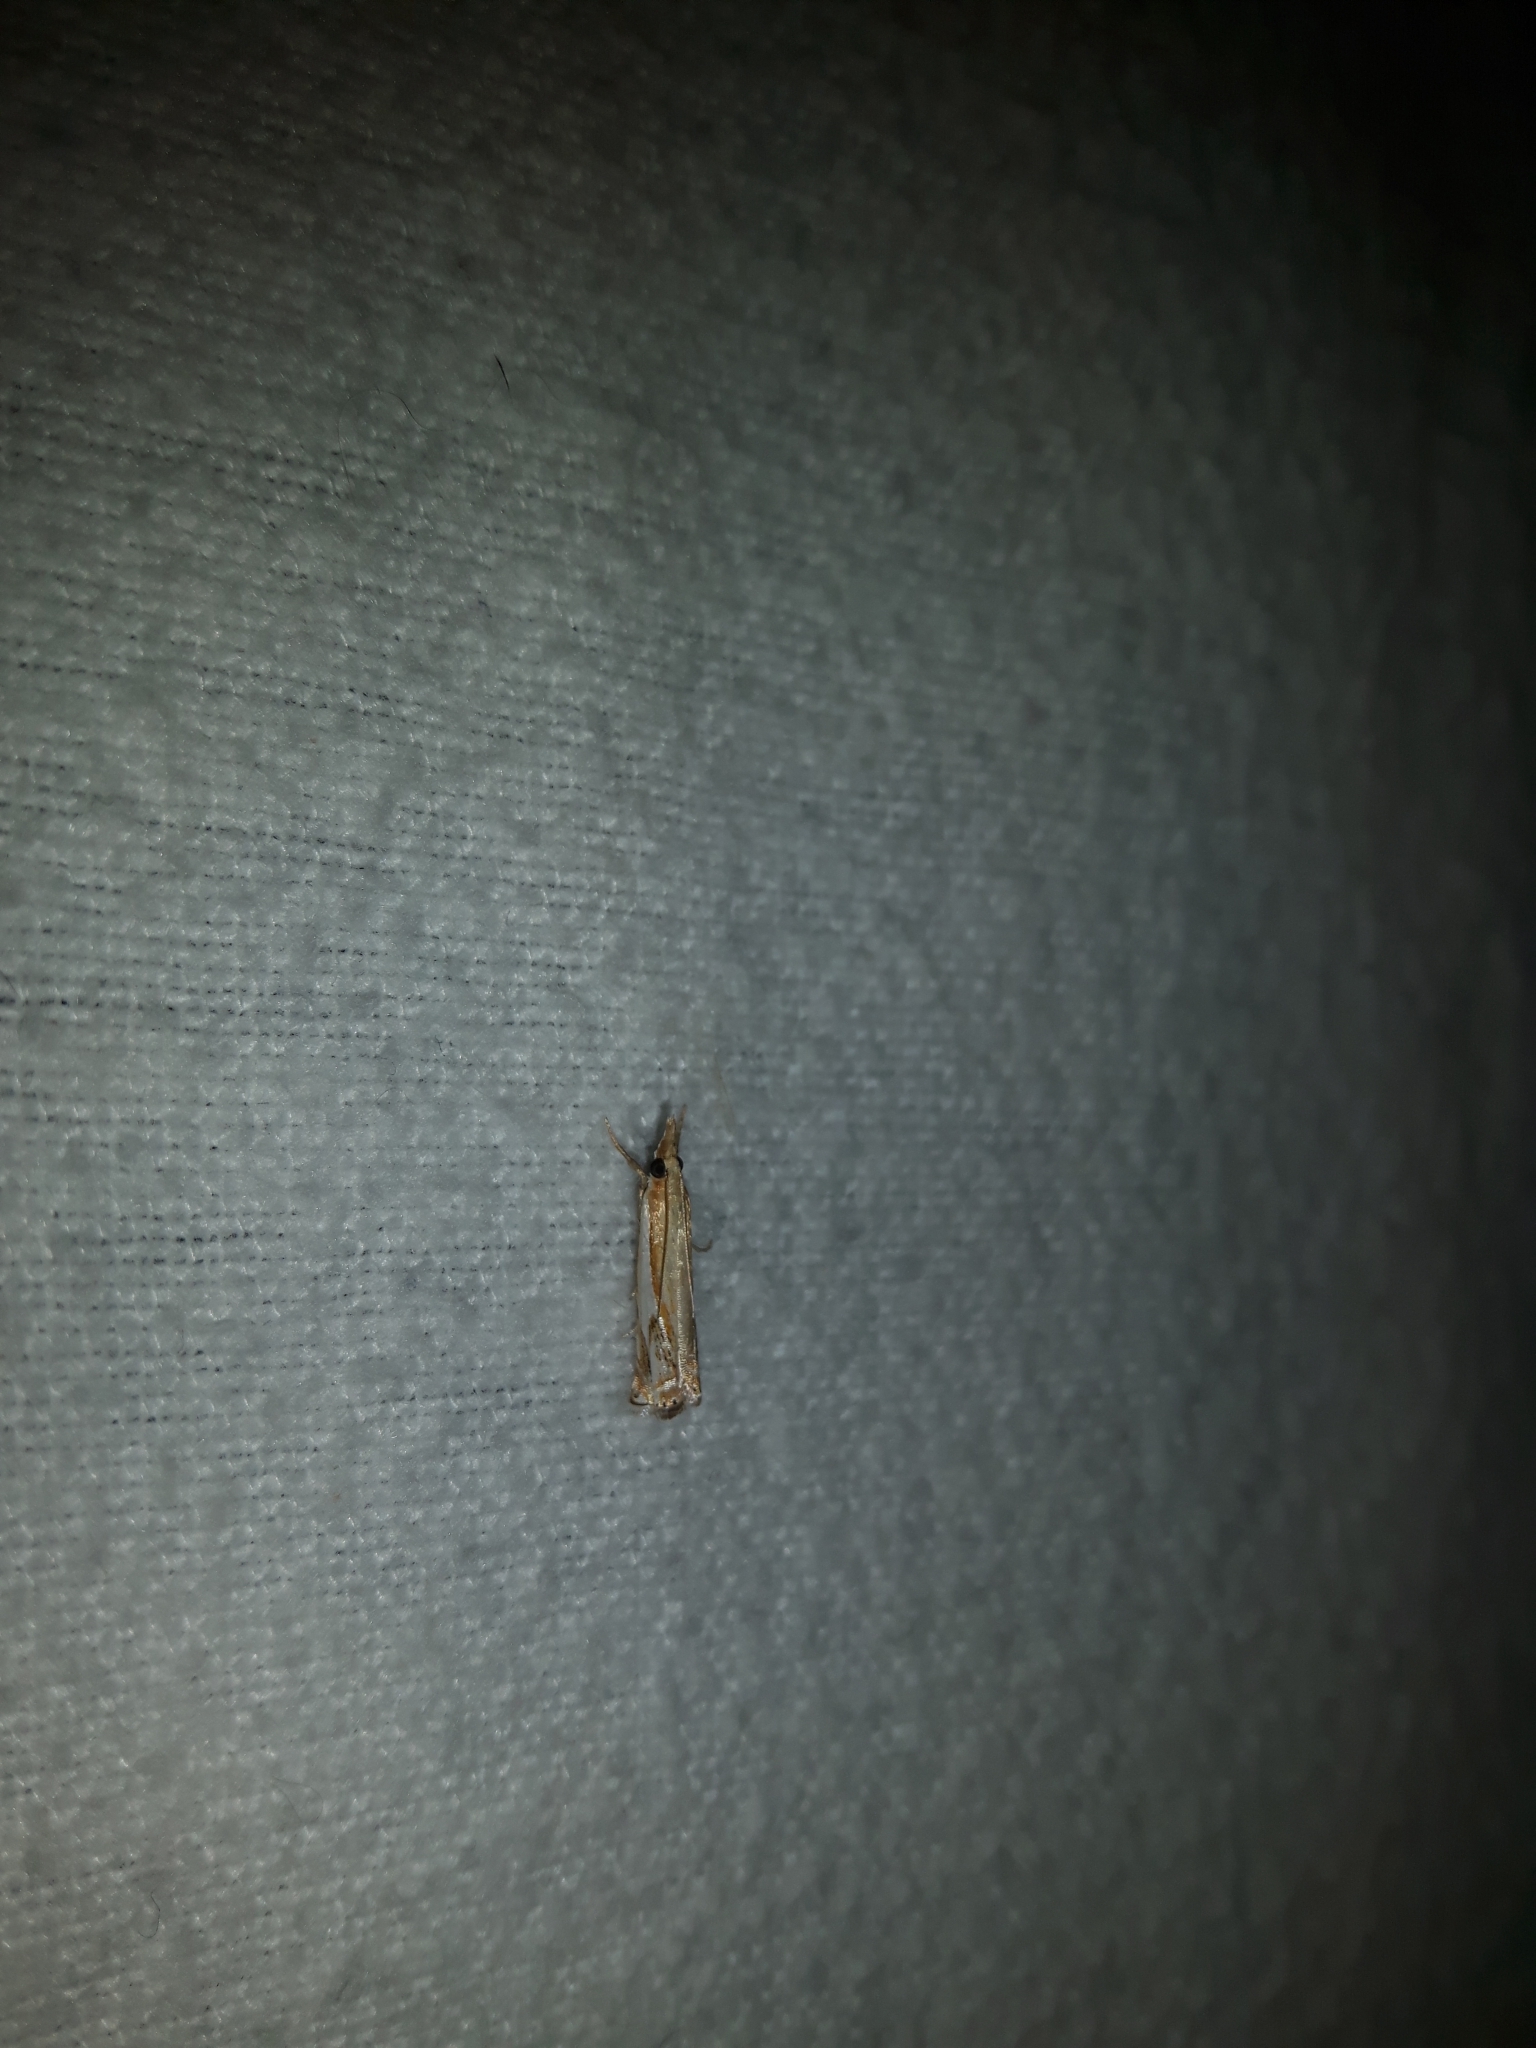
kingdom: Animalia
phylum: Arthropoda
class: Insecta
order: Lepidoptera
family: Crambidae
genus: Crambus
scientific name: Crambus agitatellus
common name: Double-banded grass-veneer
